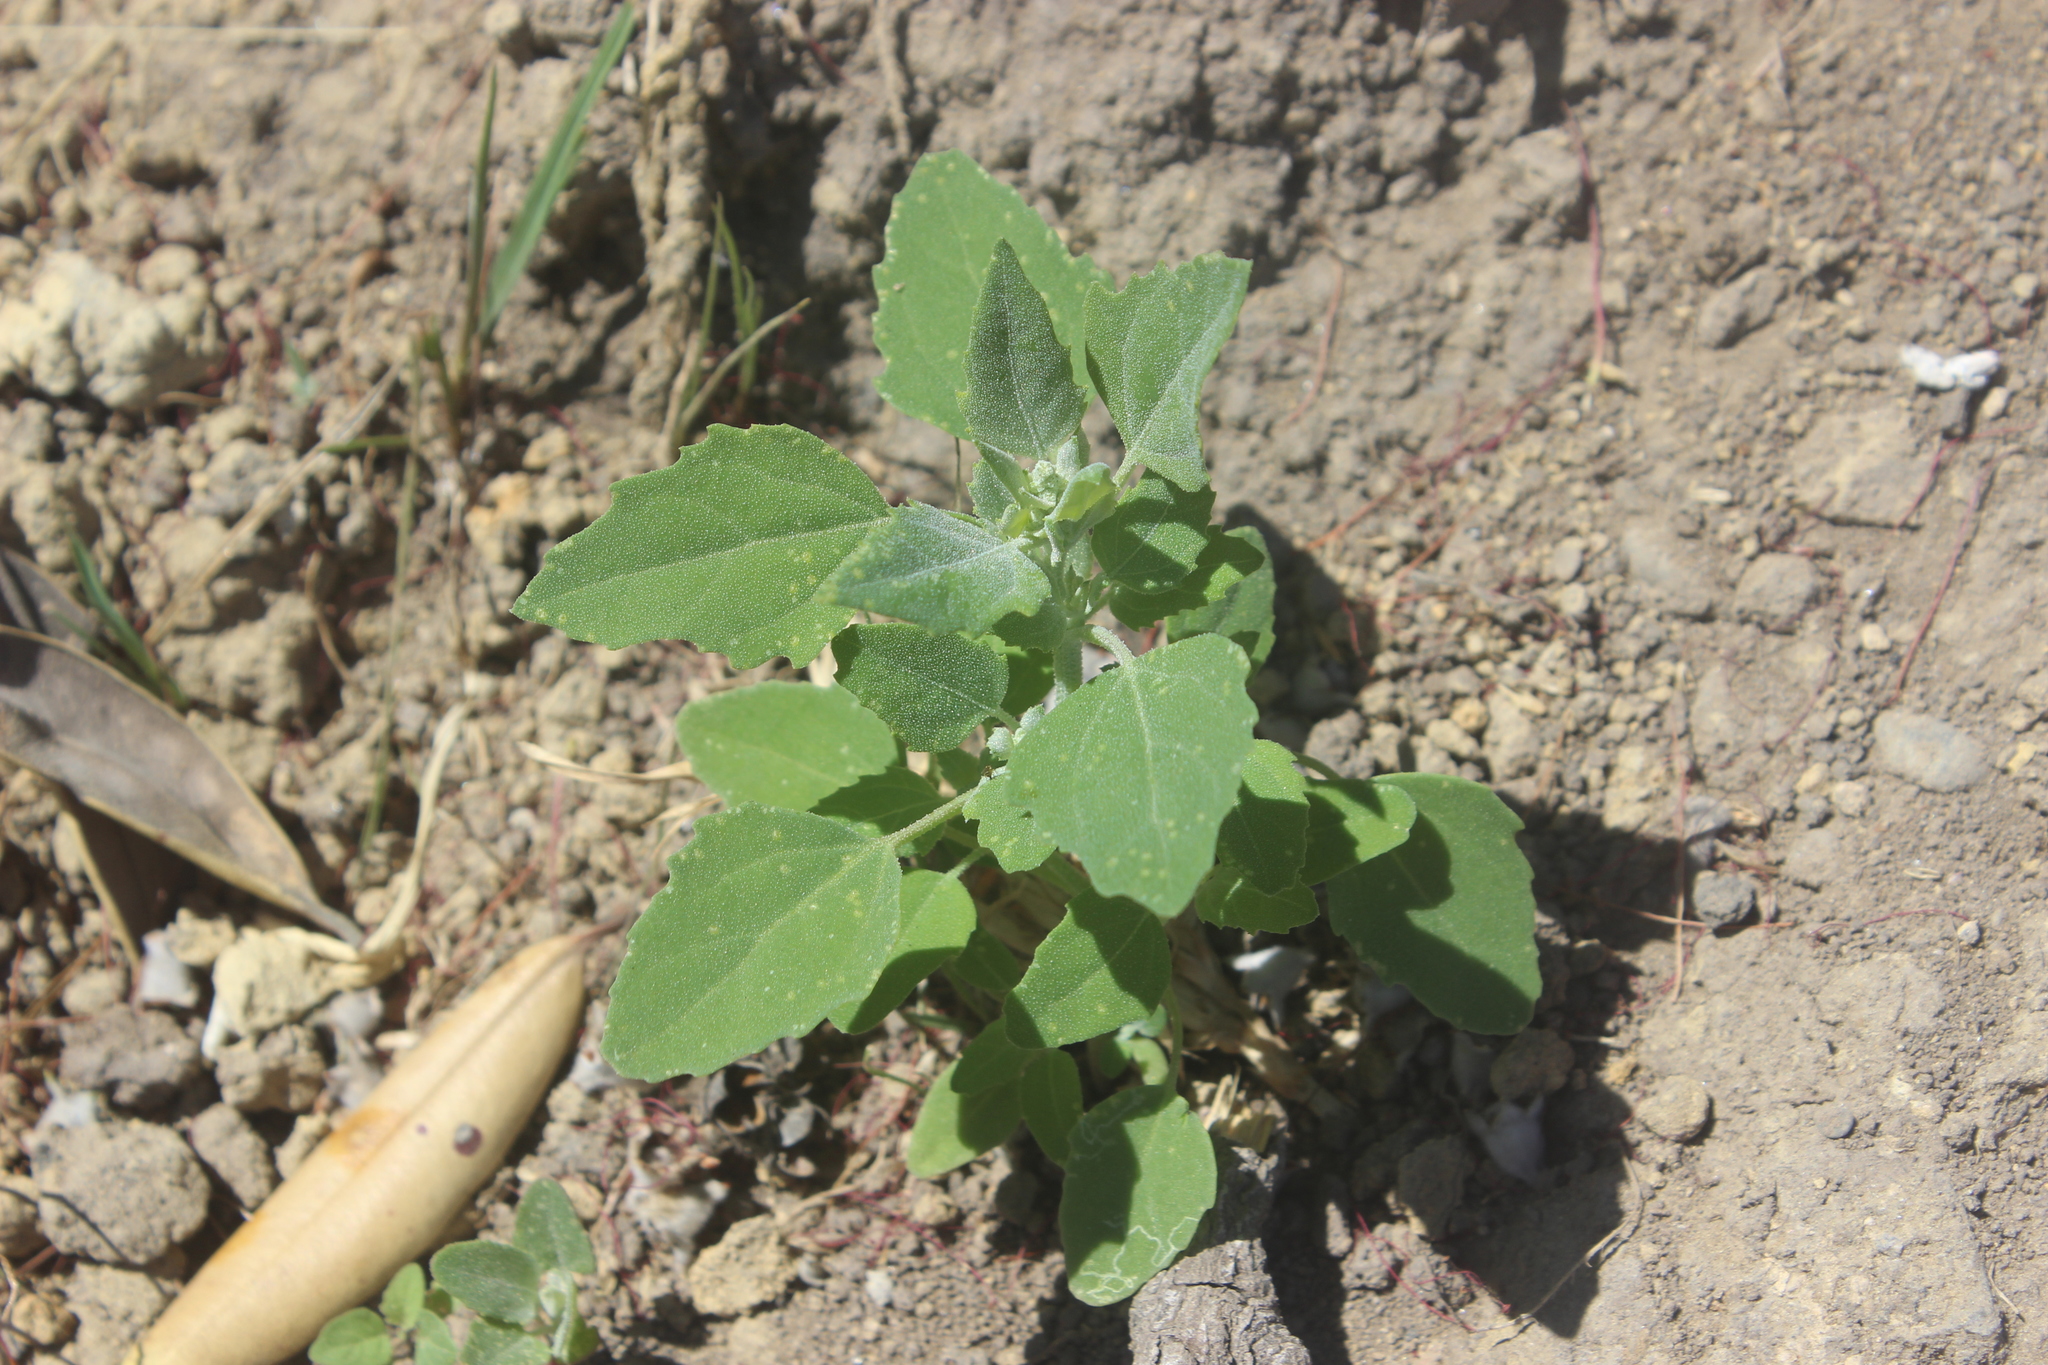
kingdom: Plantae
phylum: Tracheophyta
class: Magnoliopsida
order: Caryophyllales
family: Amaranthaceae
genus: Chenopodium
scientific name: Chenopodium album
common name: Fat-hen
